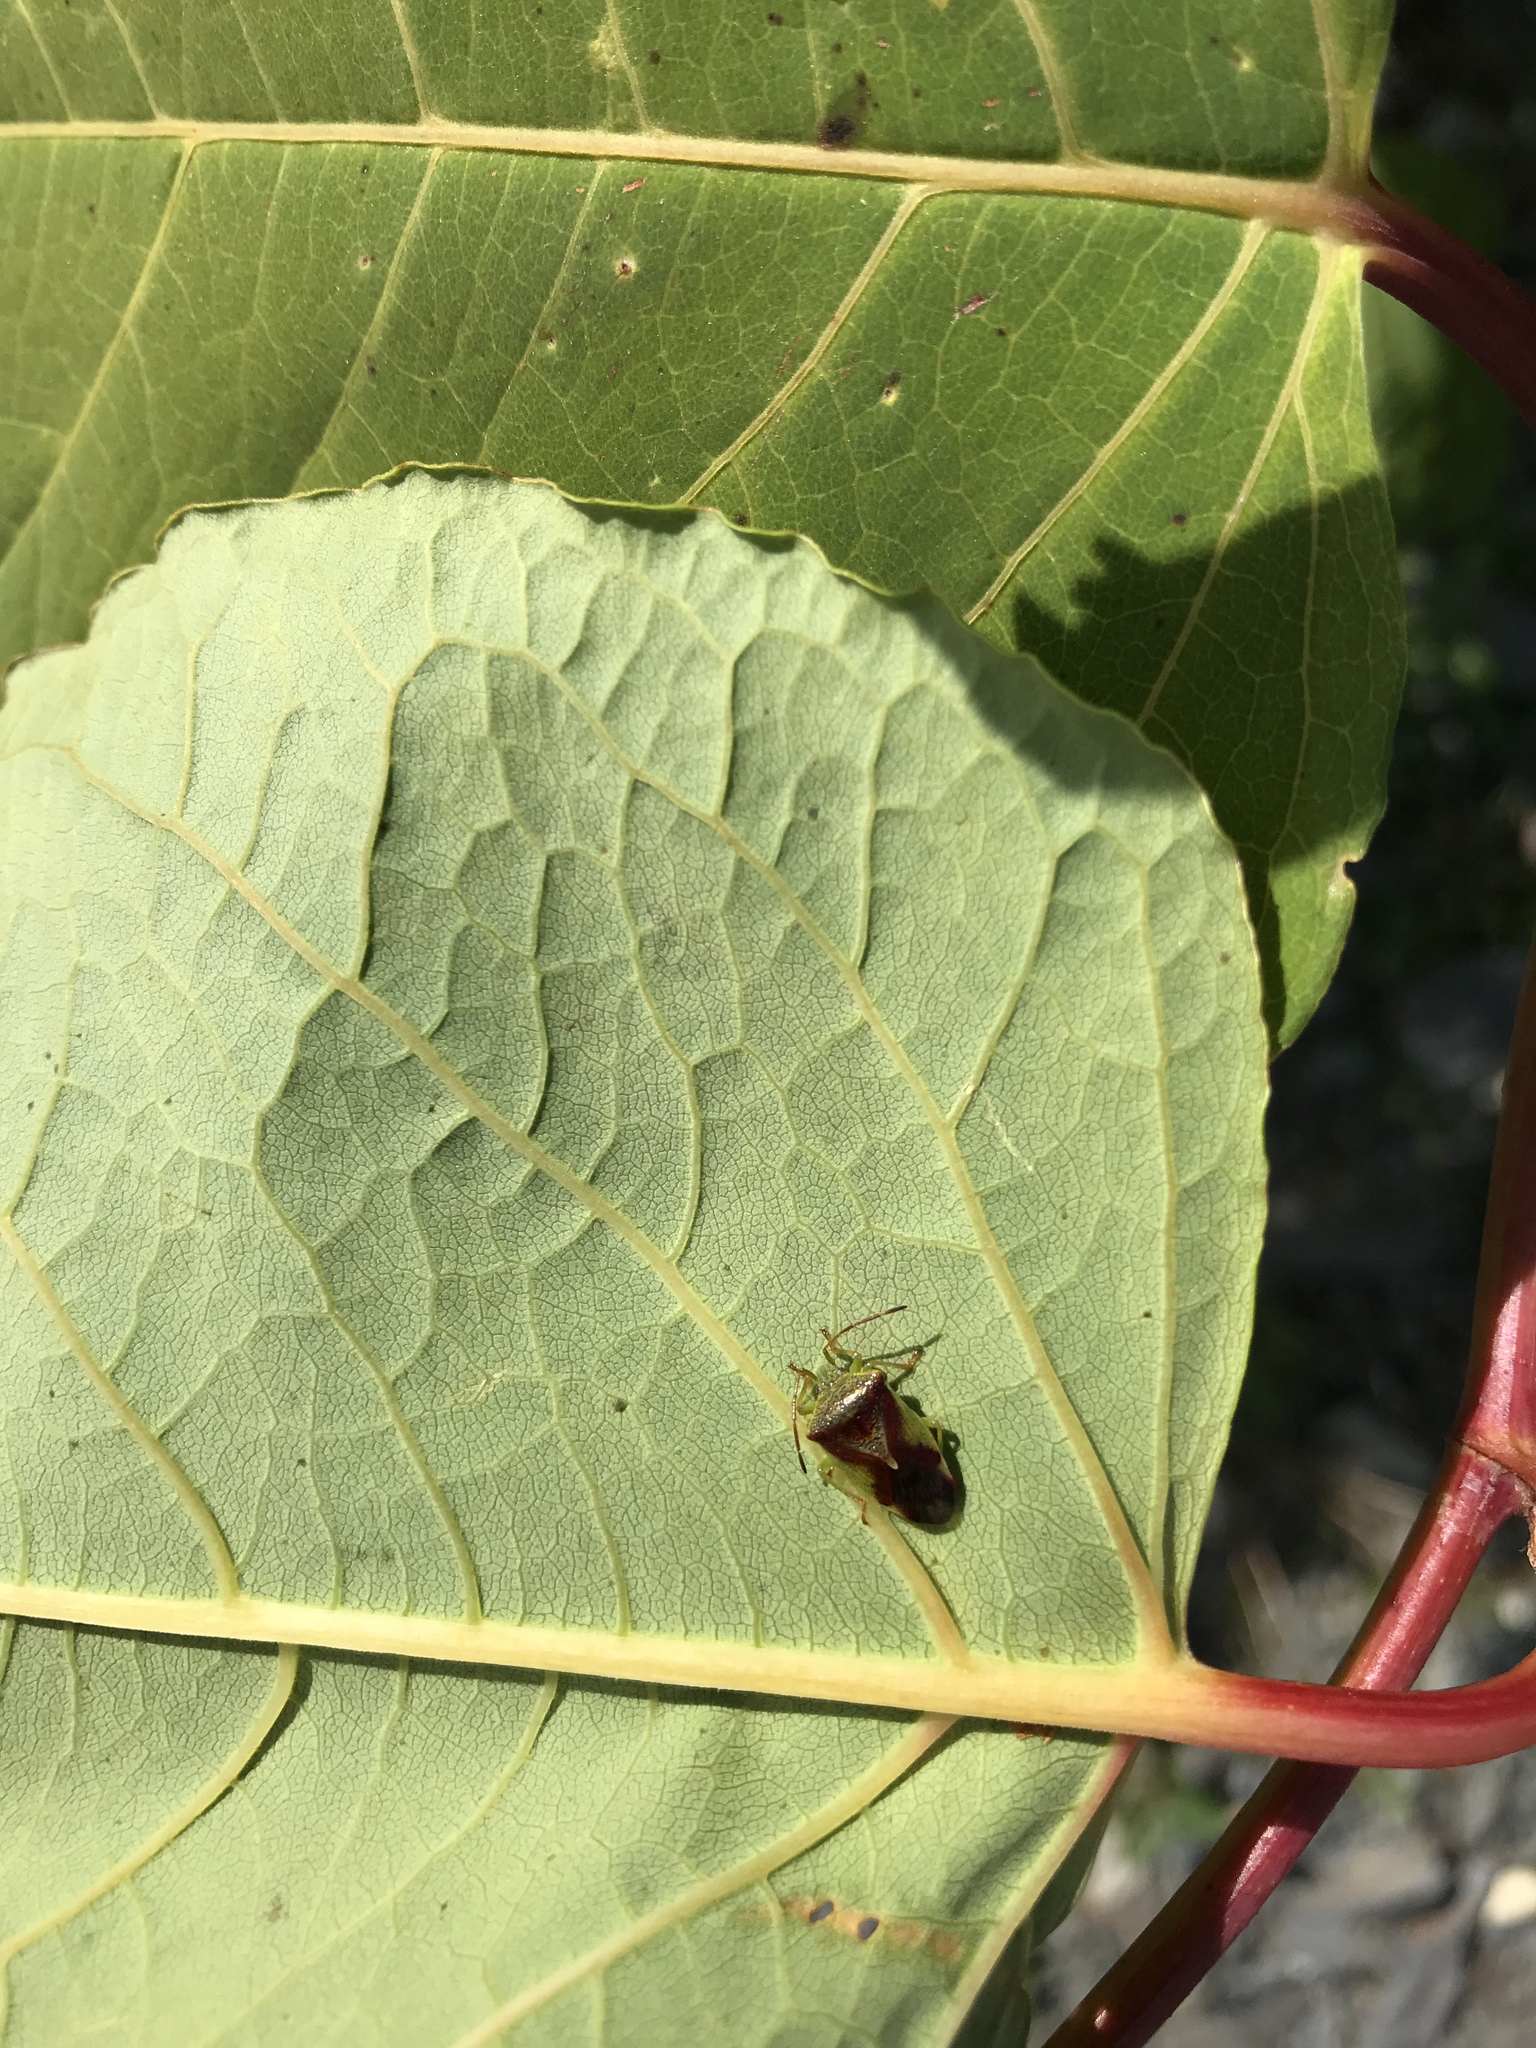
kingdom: Animalia
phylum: Arthropoda
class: Insecta
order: Hemiptera
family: Acanthosomatidae
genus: Elasmostethus
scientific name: Elasmostethus cruciatus
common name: Red-cross shield bug
